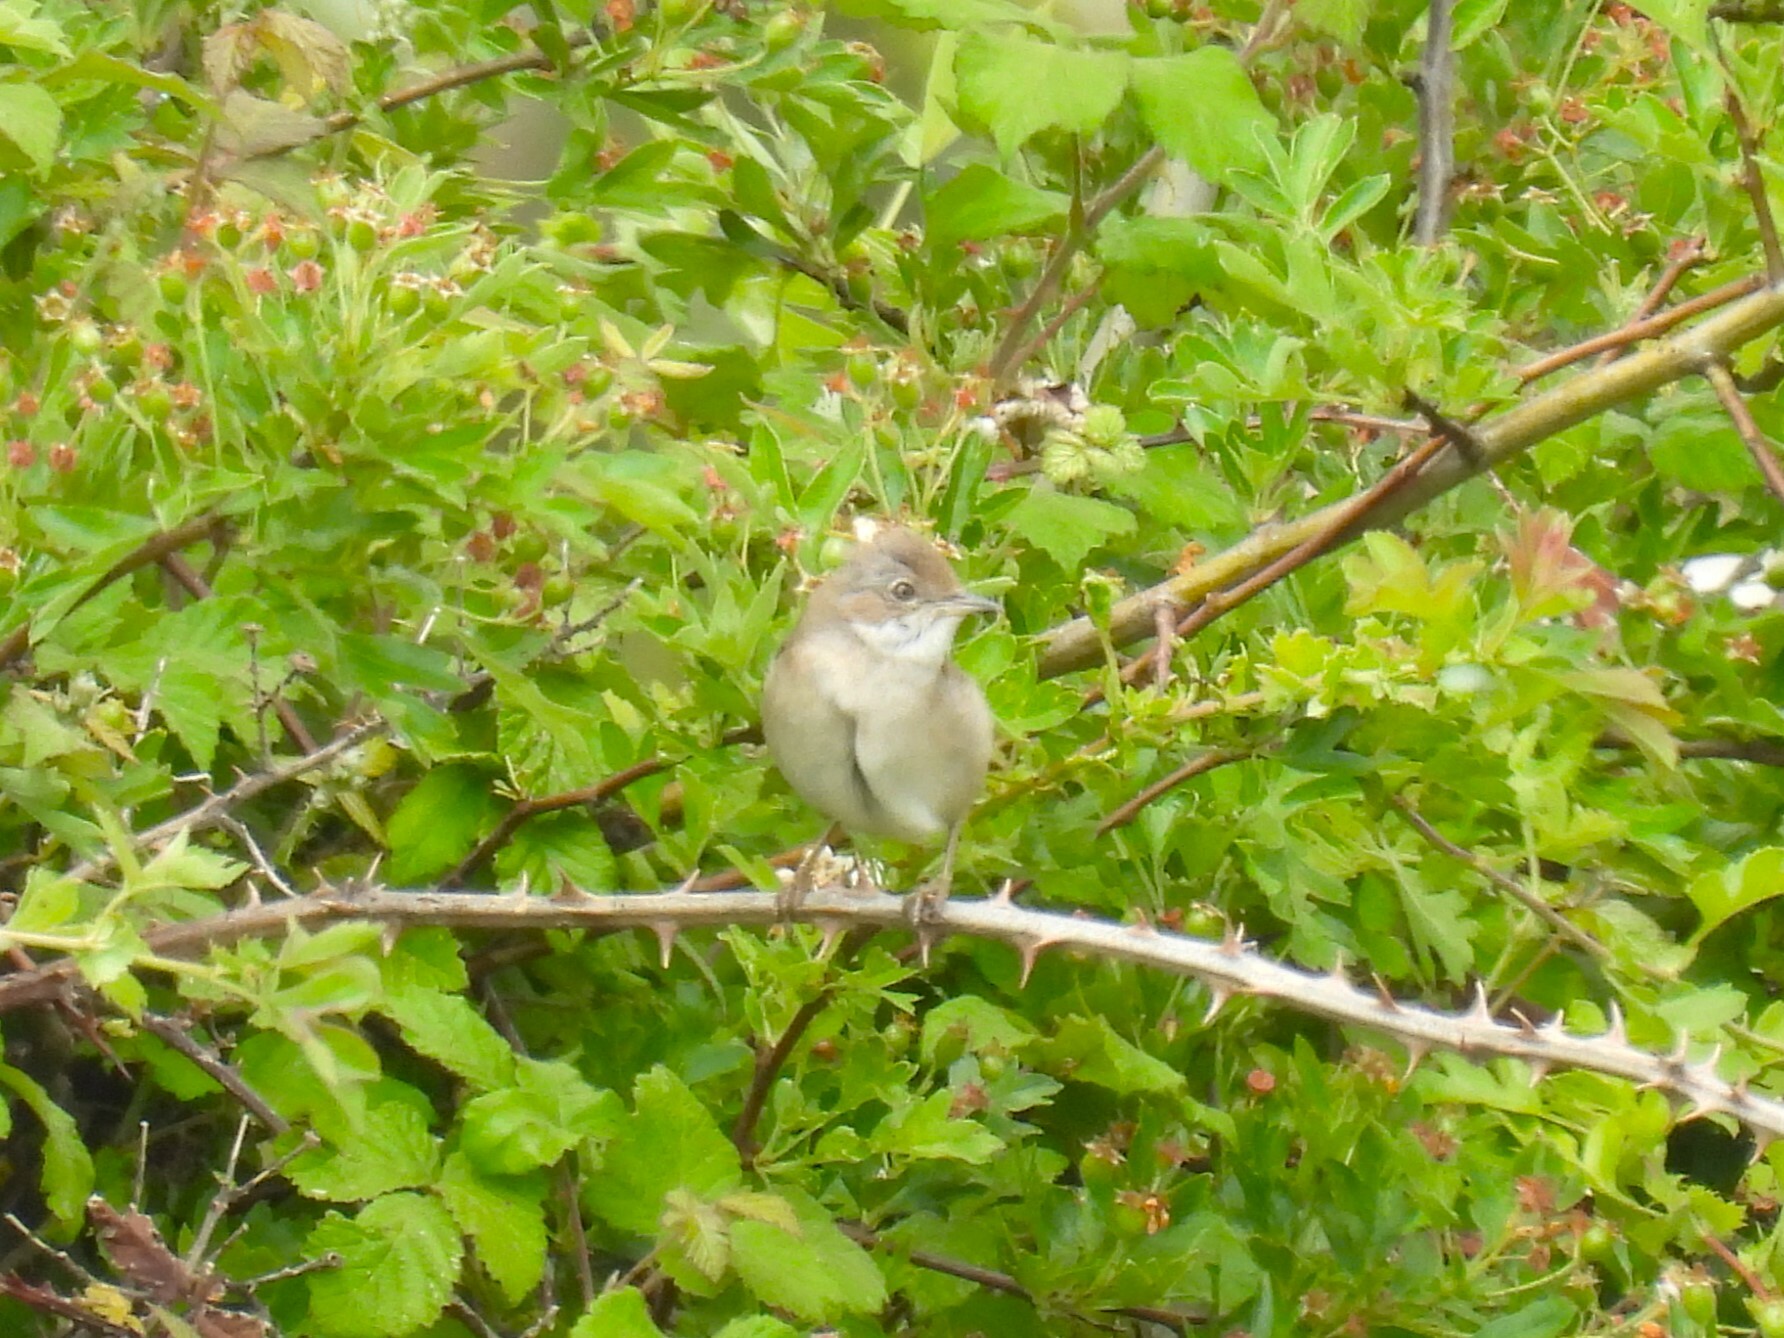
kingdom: Animalia
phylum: Chordata
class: Aves
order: Passeriformes
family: Sylviidae
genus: Sylvia
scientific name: Sylvia communis
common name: Common whitethroat
